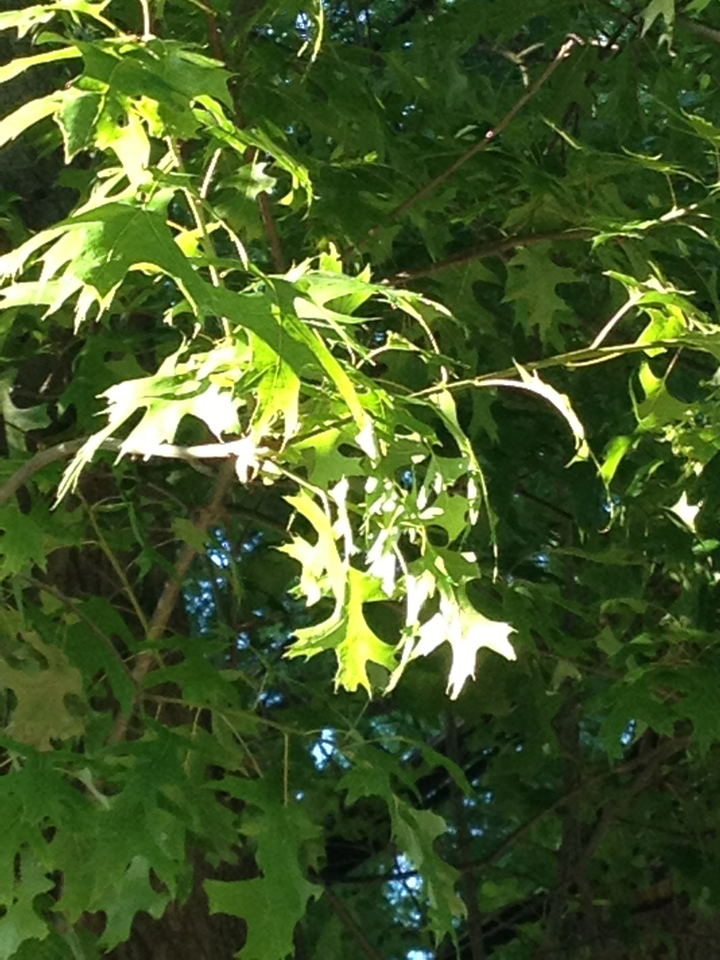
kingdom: Plantae
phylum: Tracheophyta
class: Magnoliopsida
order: Fagales
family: Fagaceae
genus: Quercus
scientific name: Quercus palustris
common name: Pin oak
